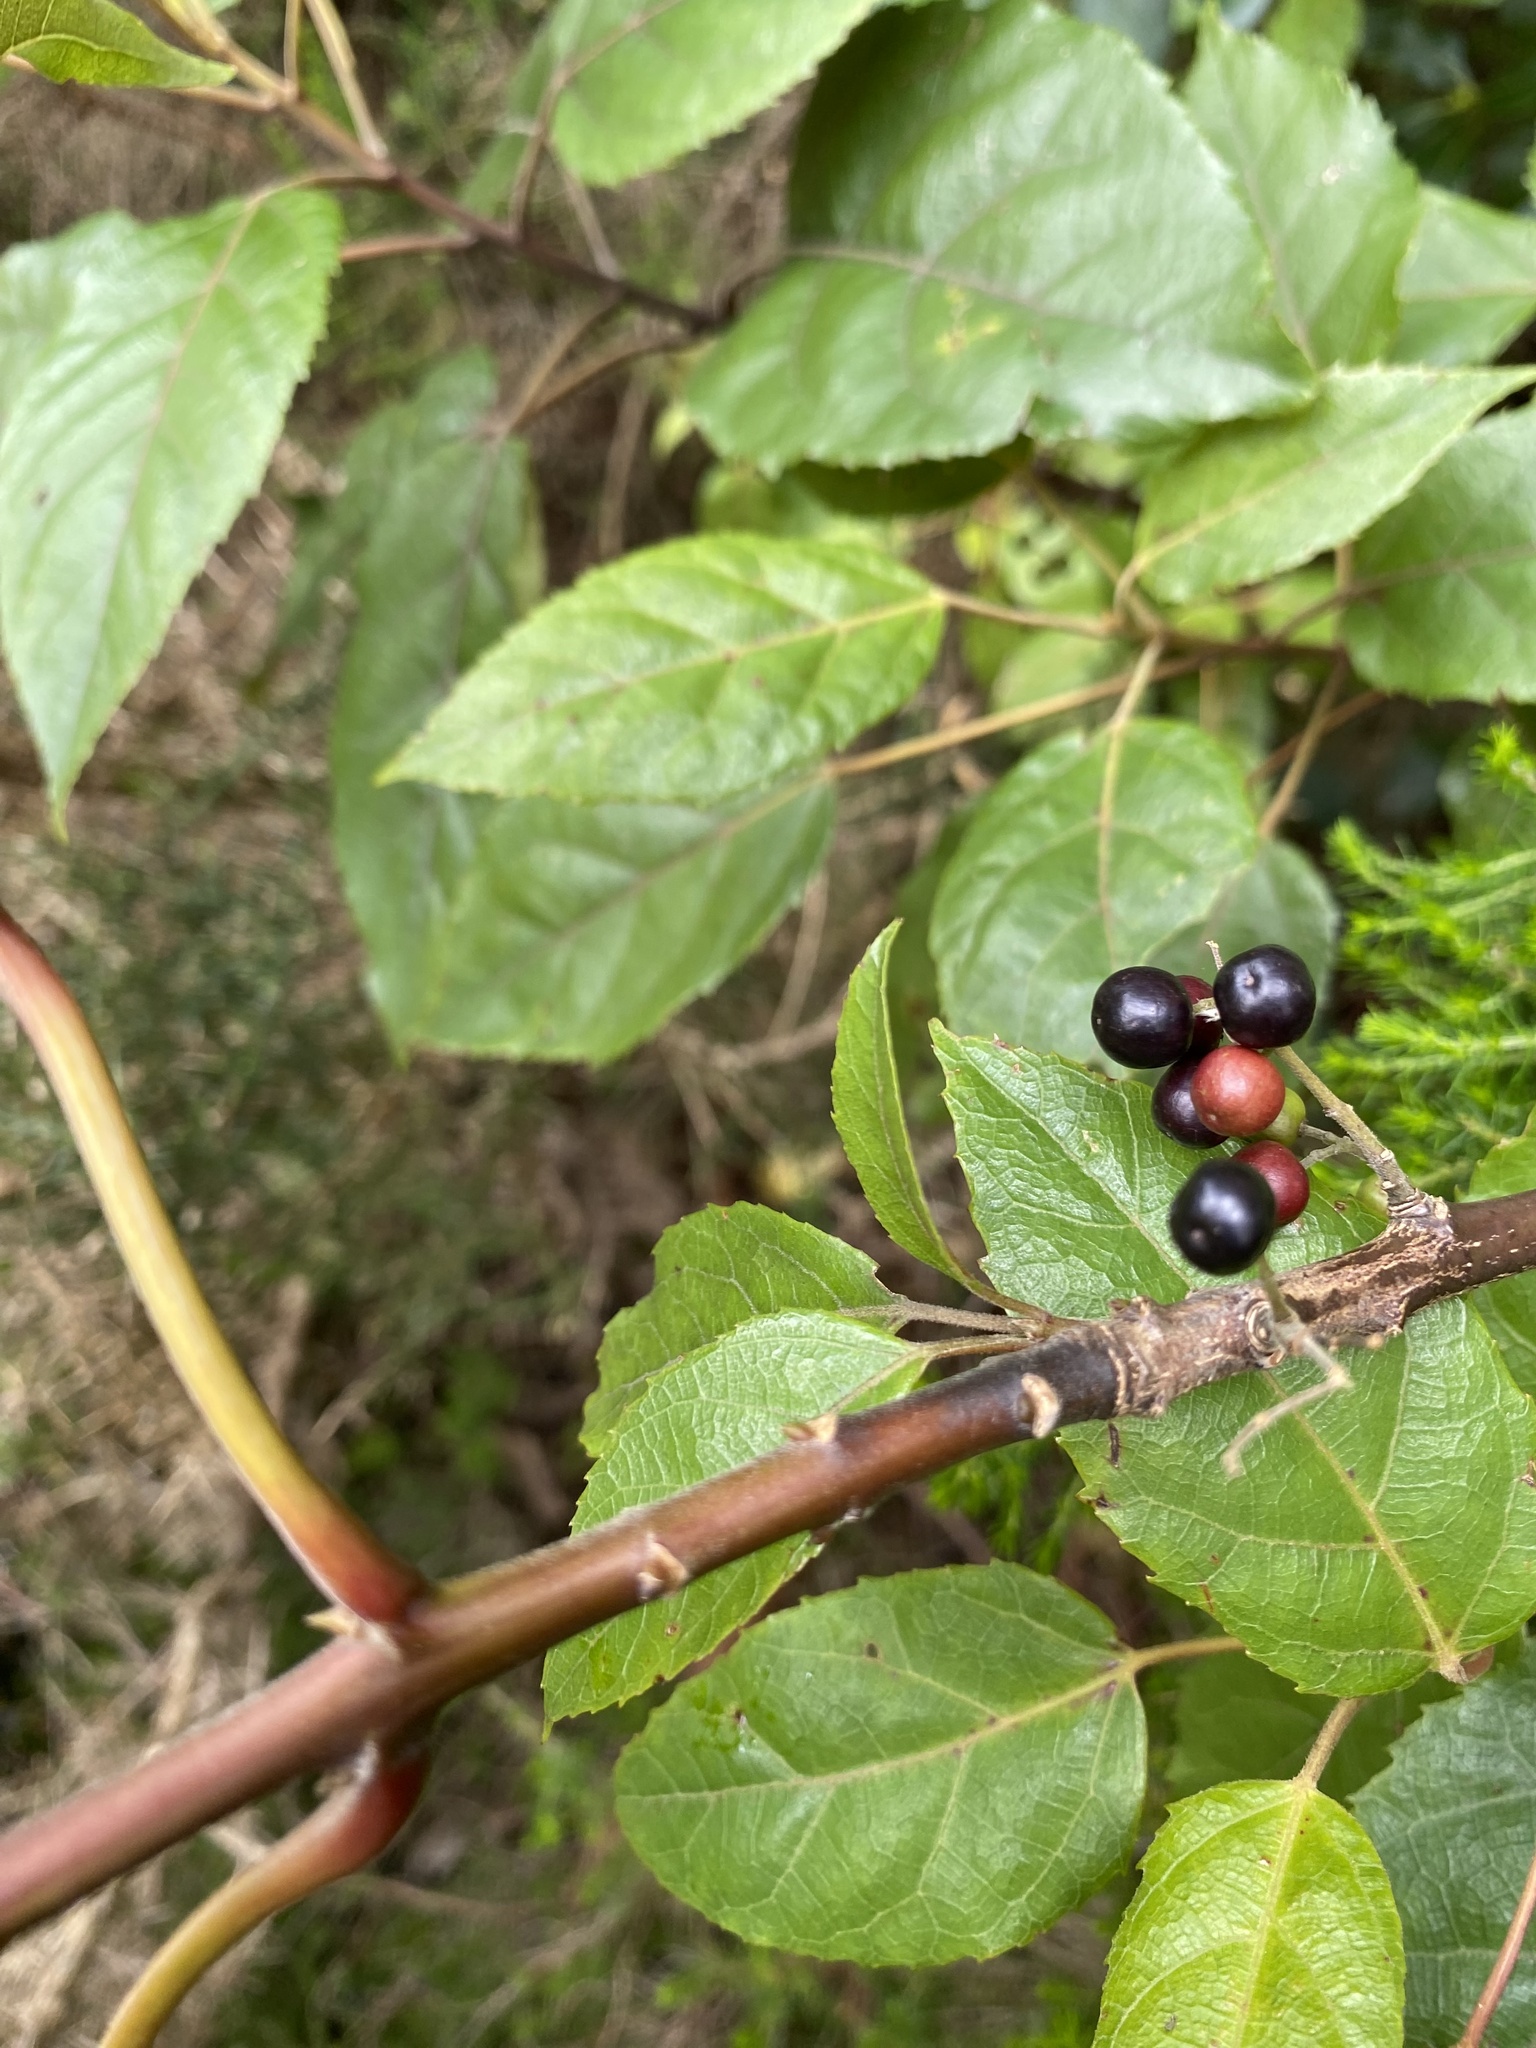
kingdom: Plantae
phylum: Tracheophyta
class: Magnoliopsida
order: Oxalidales
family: Elaeocarpaceae
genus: Aristotelia
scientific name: Aristotelia serrata
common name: New zealand wineberry
